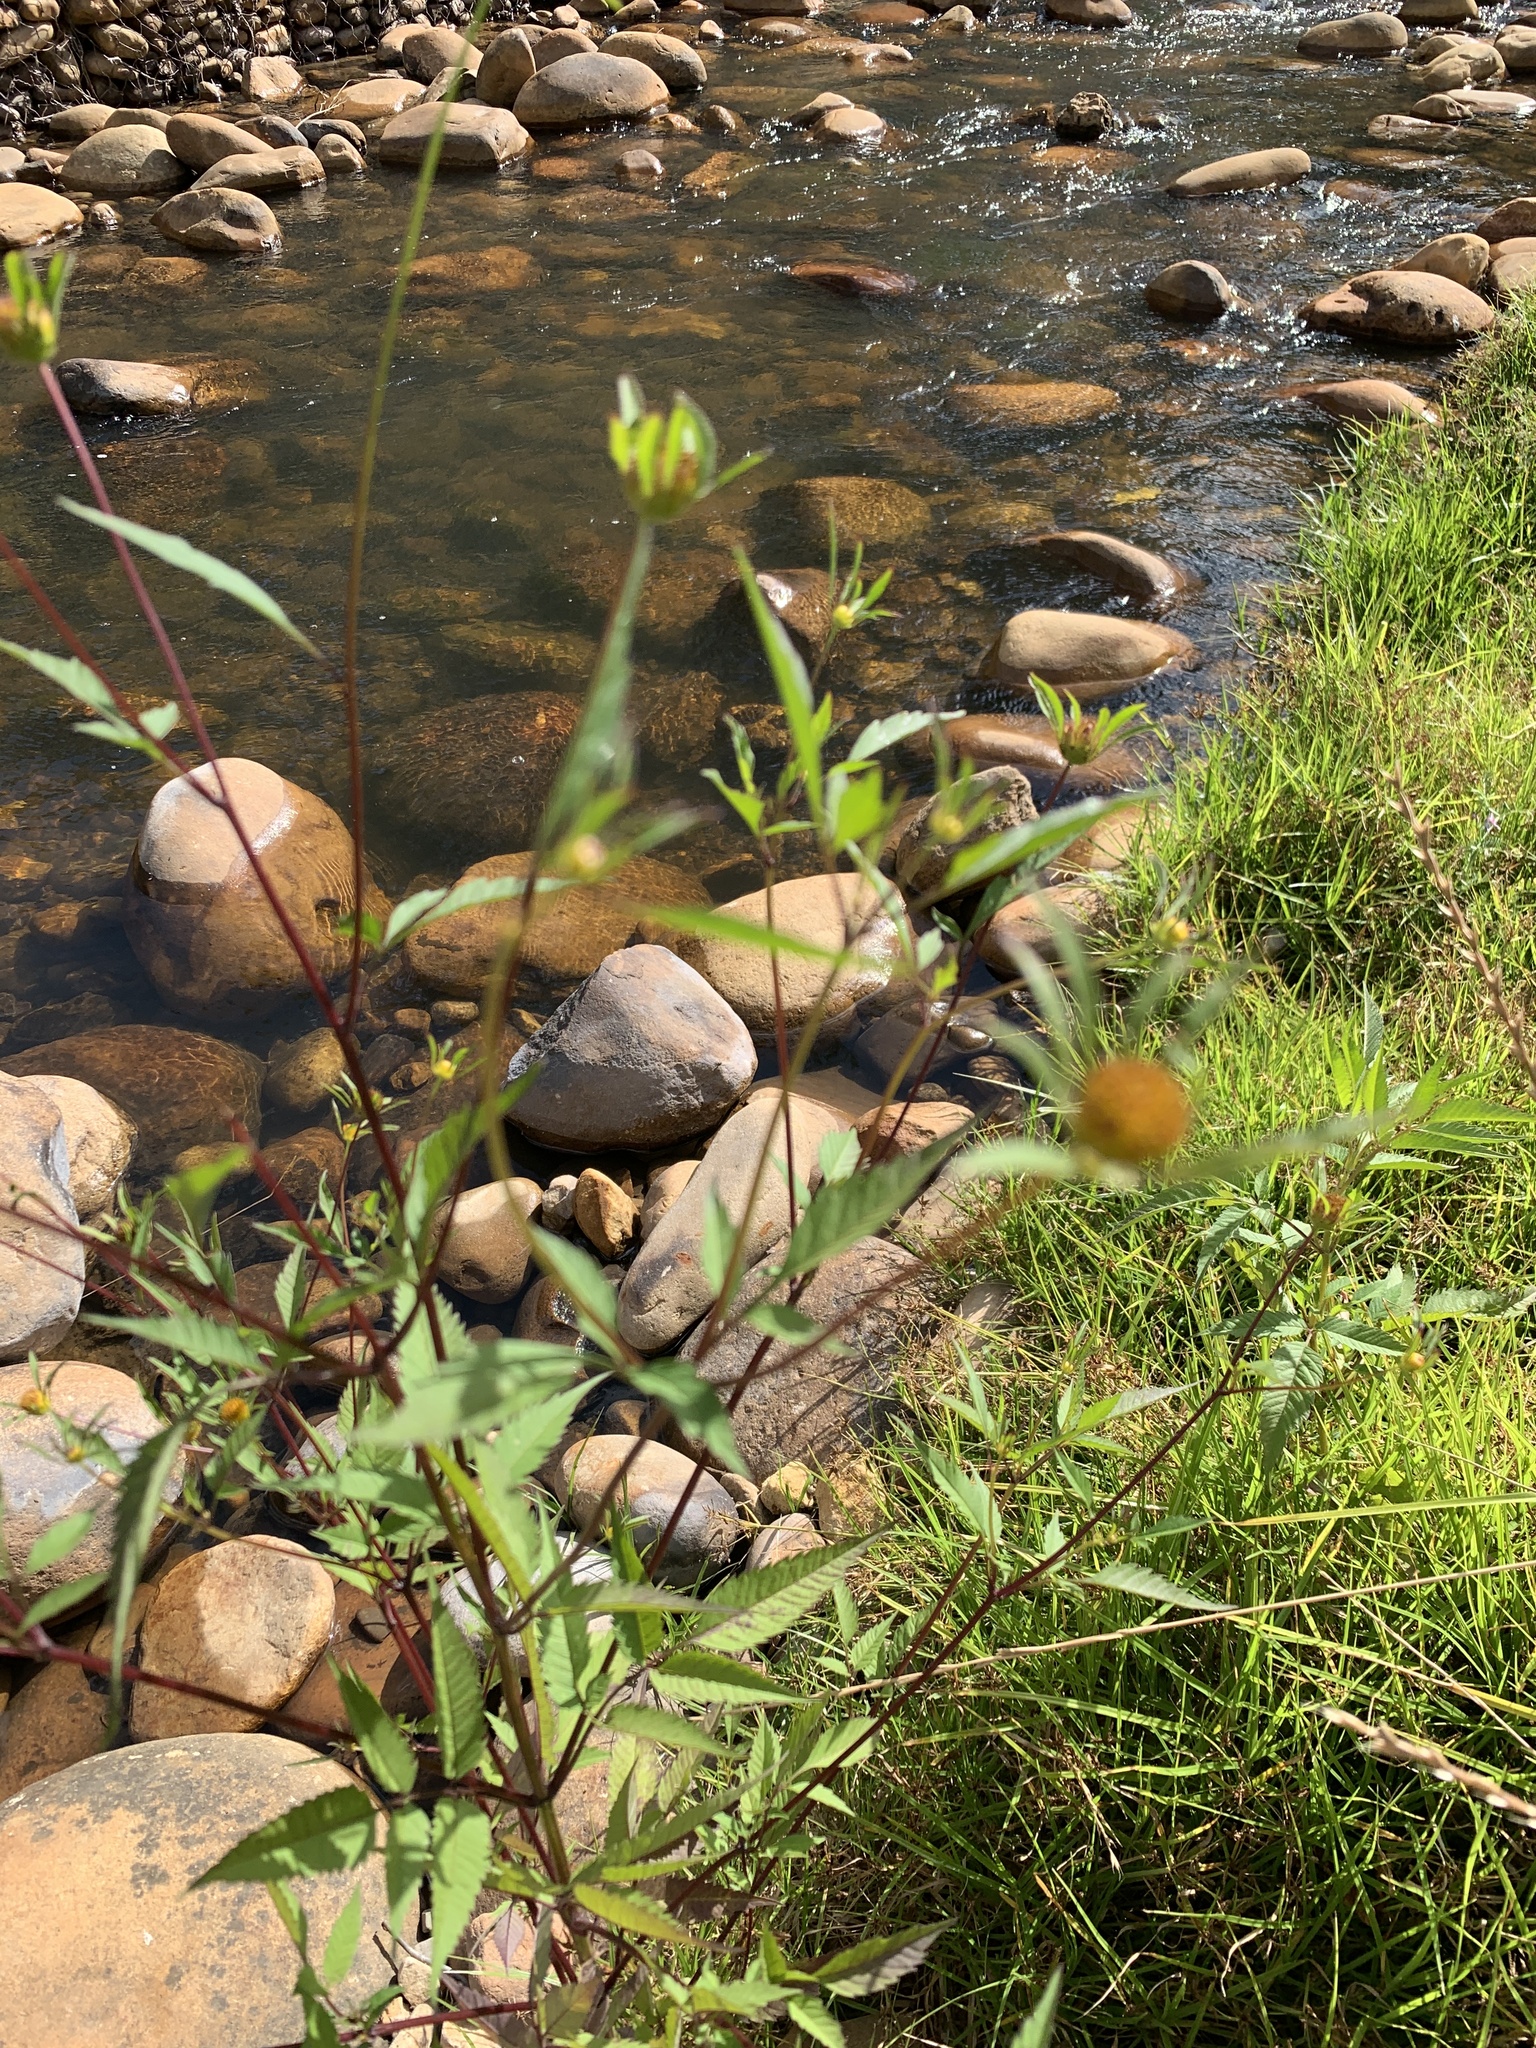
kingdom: Plantae
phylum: Tracheophyta
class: Magnoliopsida
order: Asterales
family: Asteraceae
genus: Bidens
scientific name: Bidens frondosa
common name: Beggarticks
